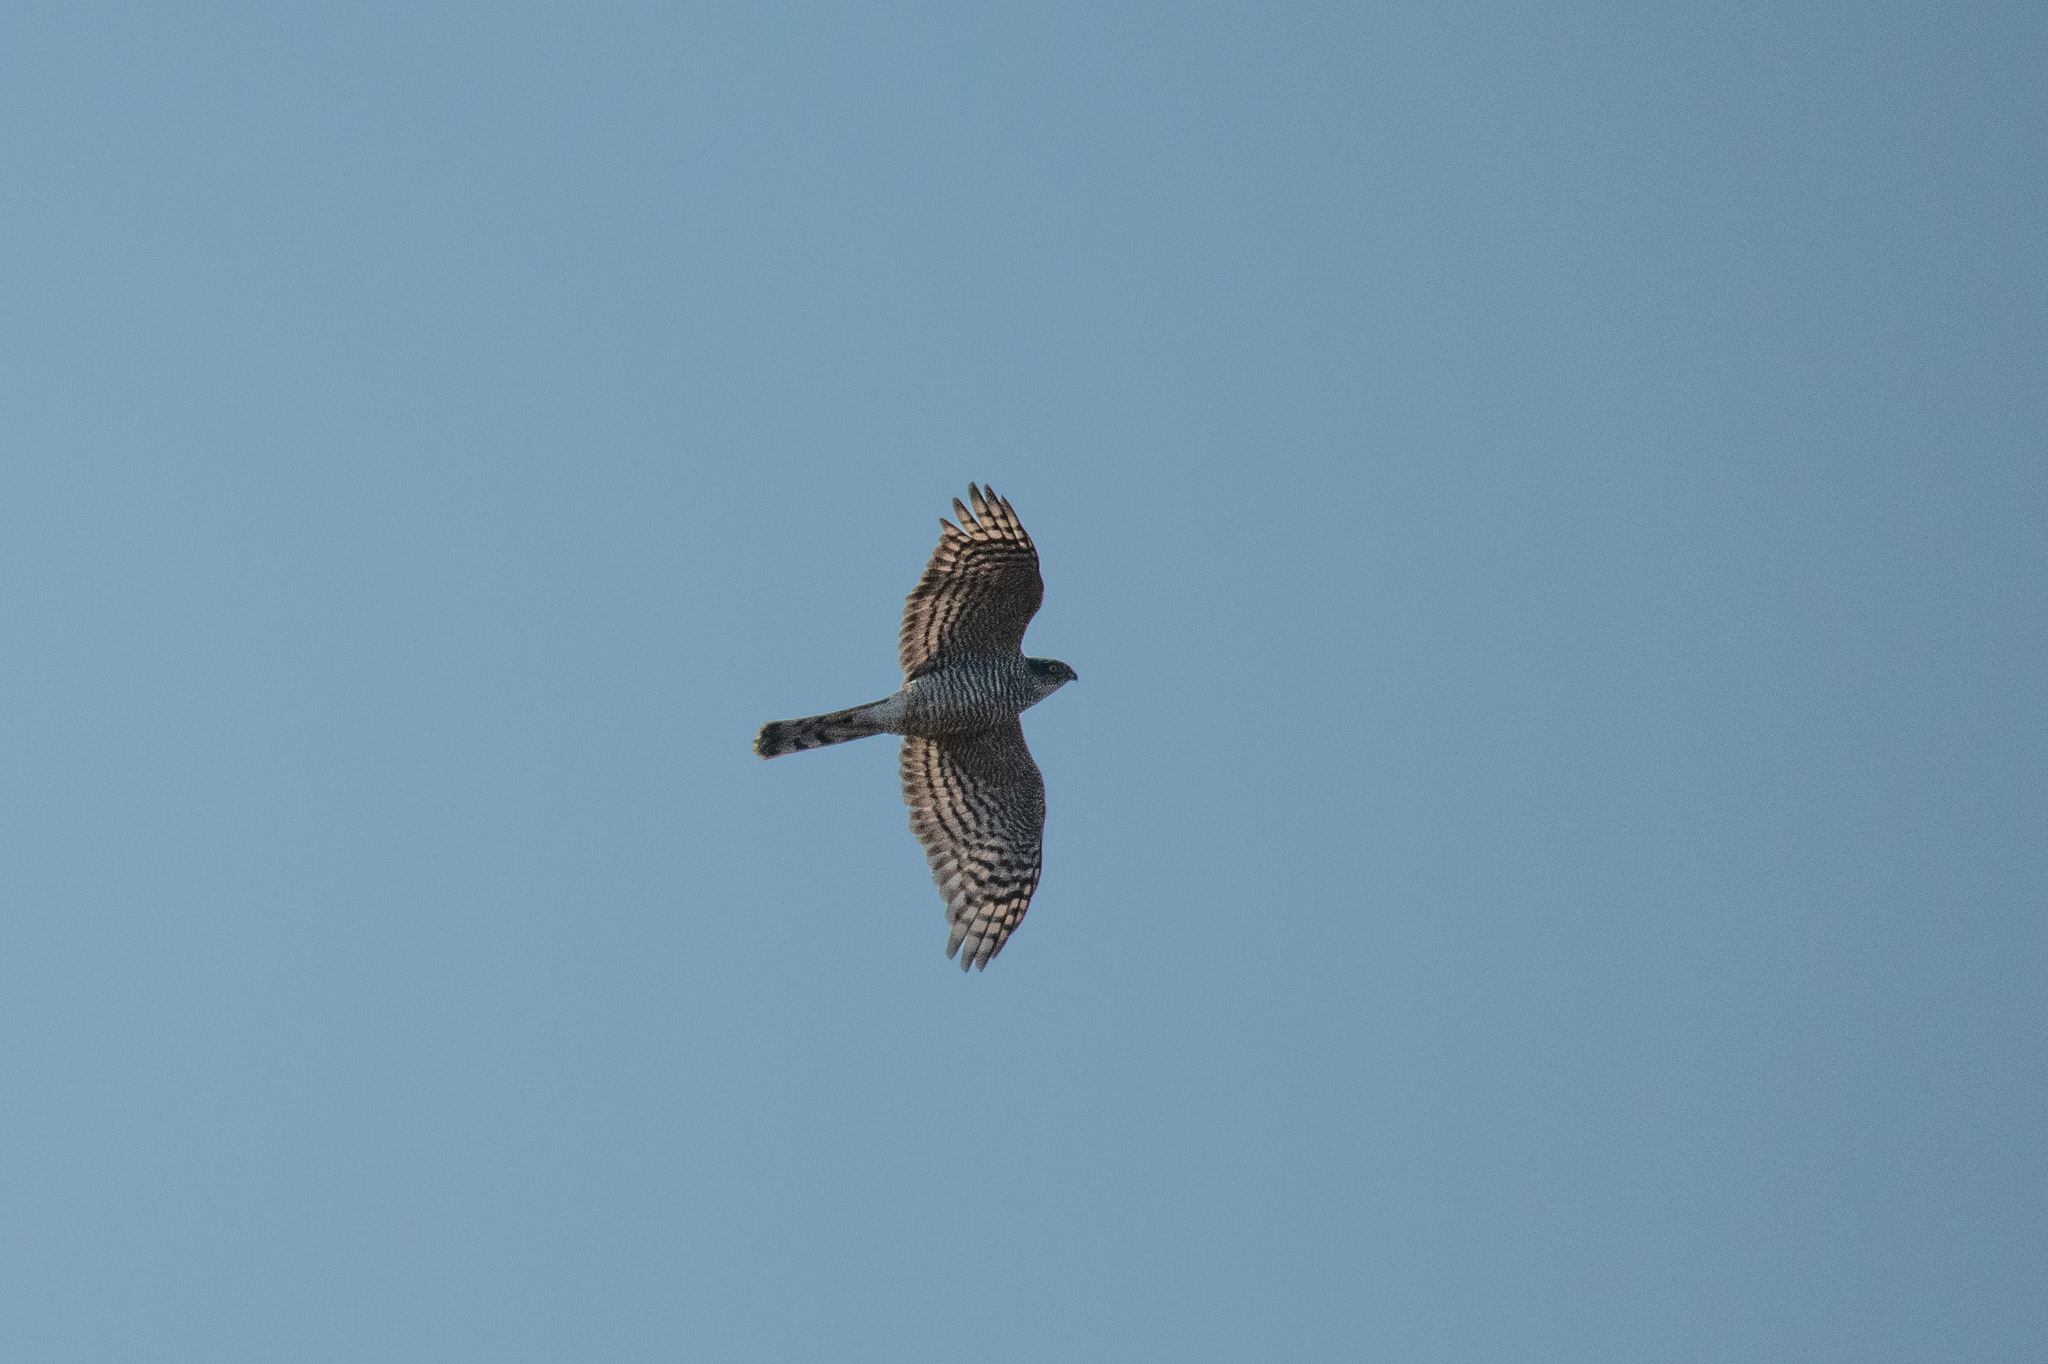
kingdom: Animalia
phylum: Chordata
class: Aves
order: Accipitriformes
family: Accipitridae
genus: Accipiter
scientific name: Accipiter nisus
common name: Eurasian sparrowhawk
